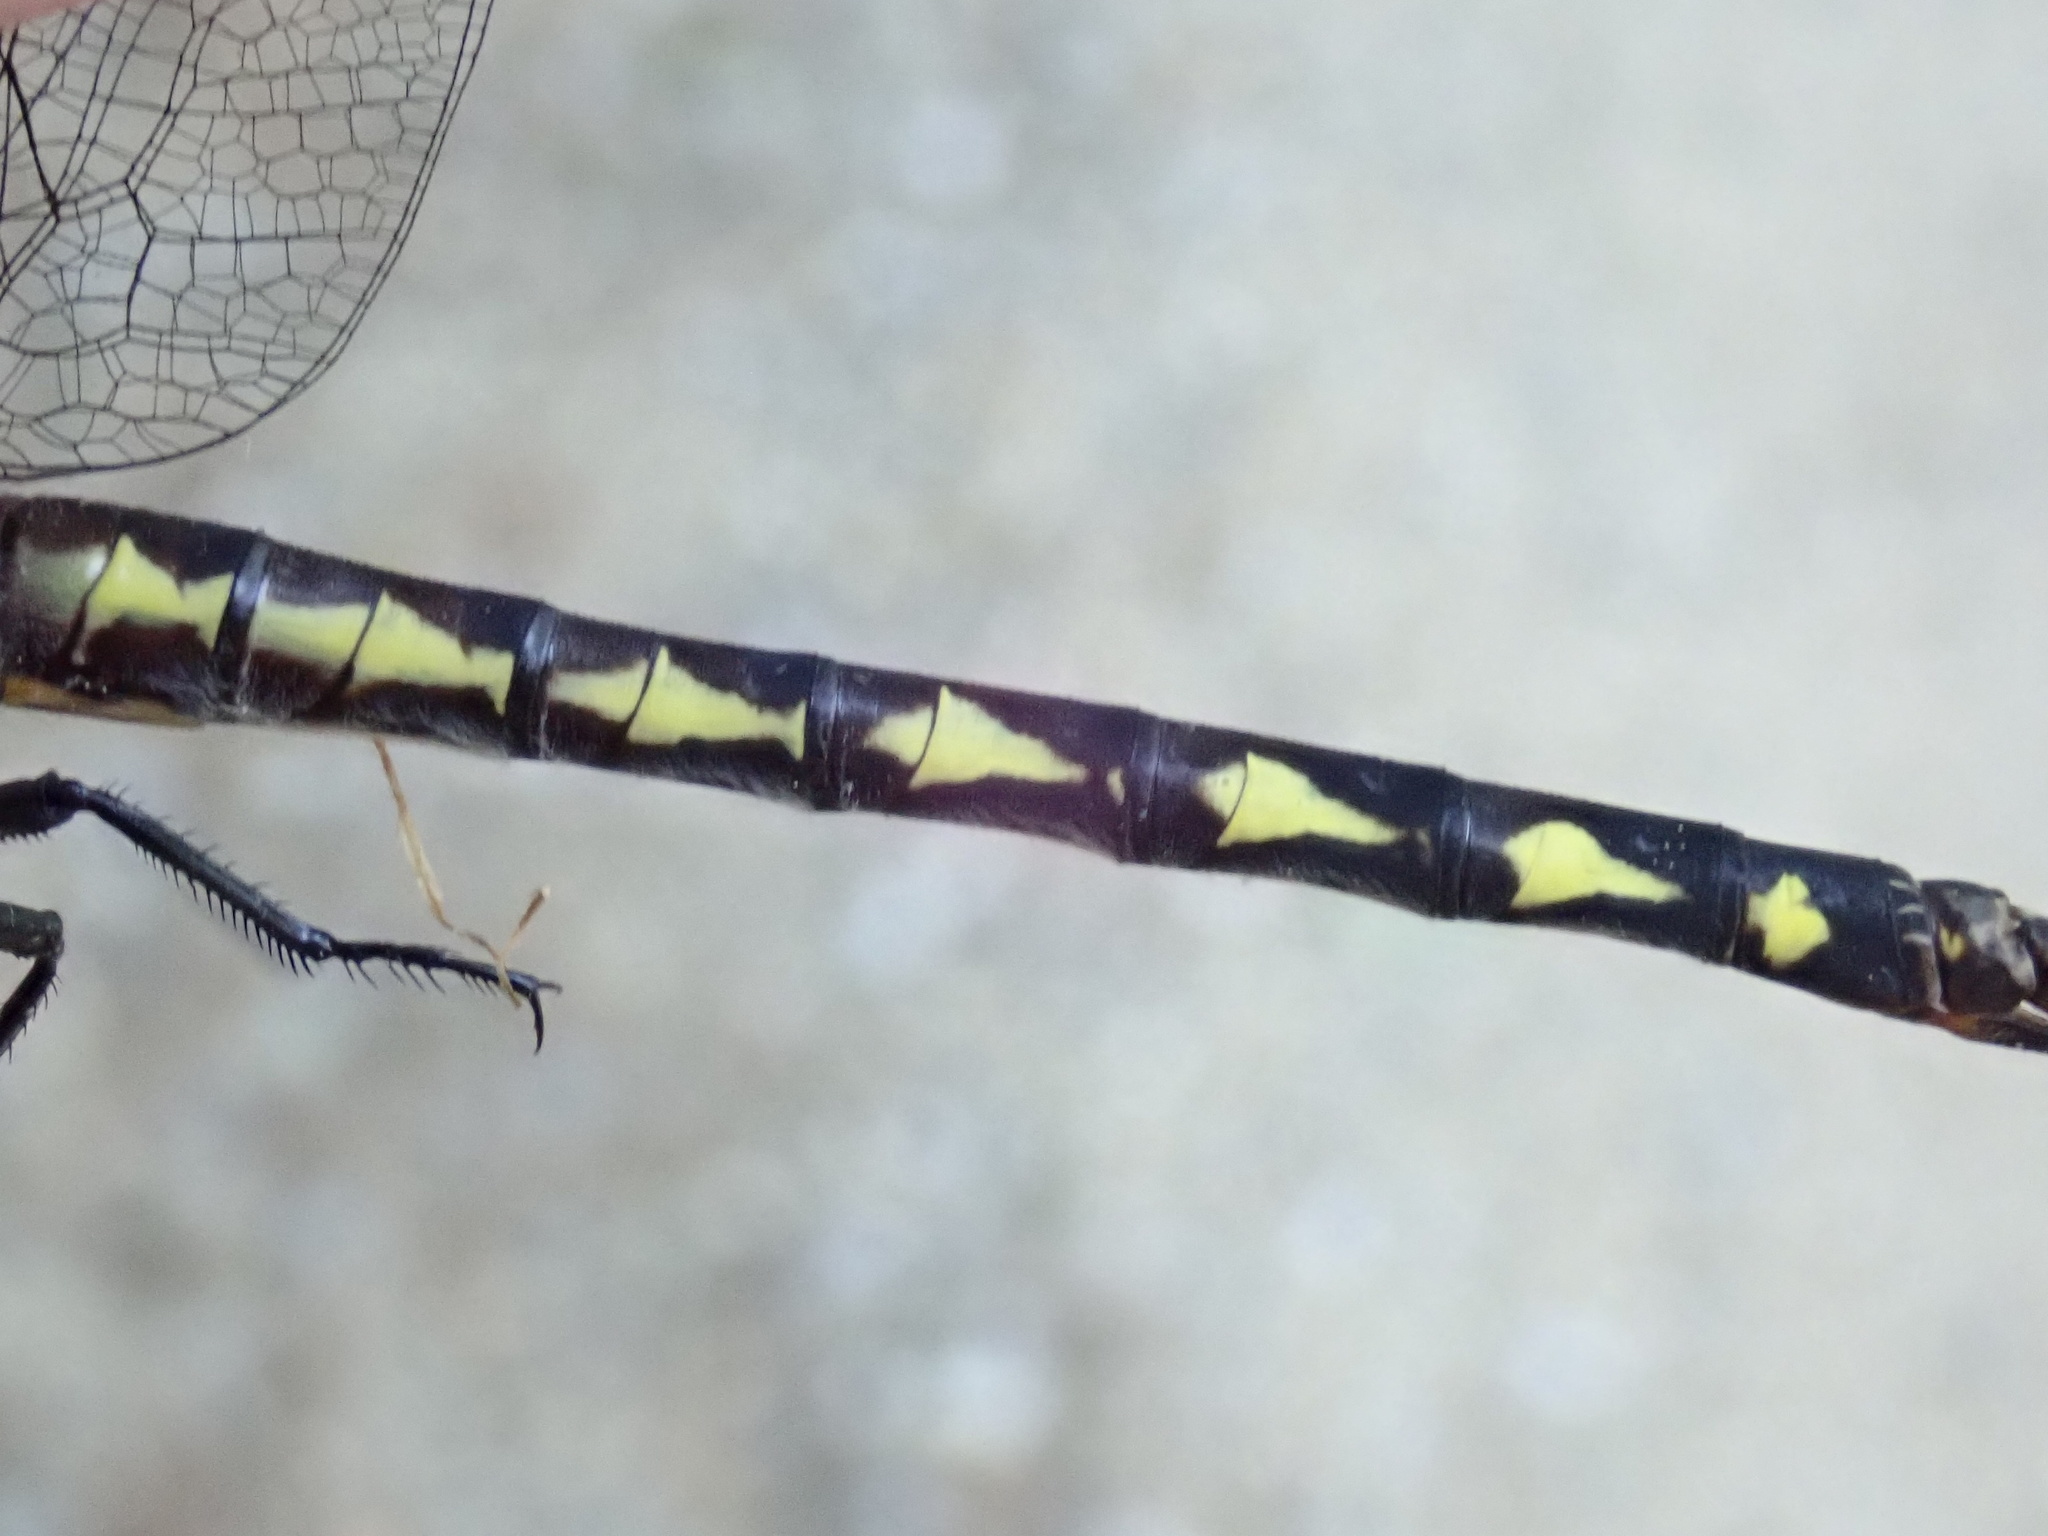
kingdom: Animalia
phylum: Arthropoda
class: Insecta
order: Odonata
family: Cordulegastridae
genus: Cordulegaster
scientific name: Cordulegaster diastatops
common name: Delta-spotted spiketail
